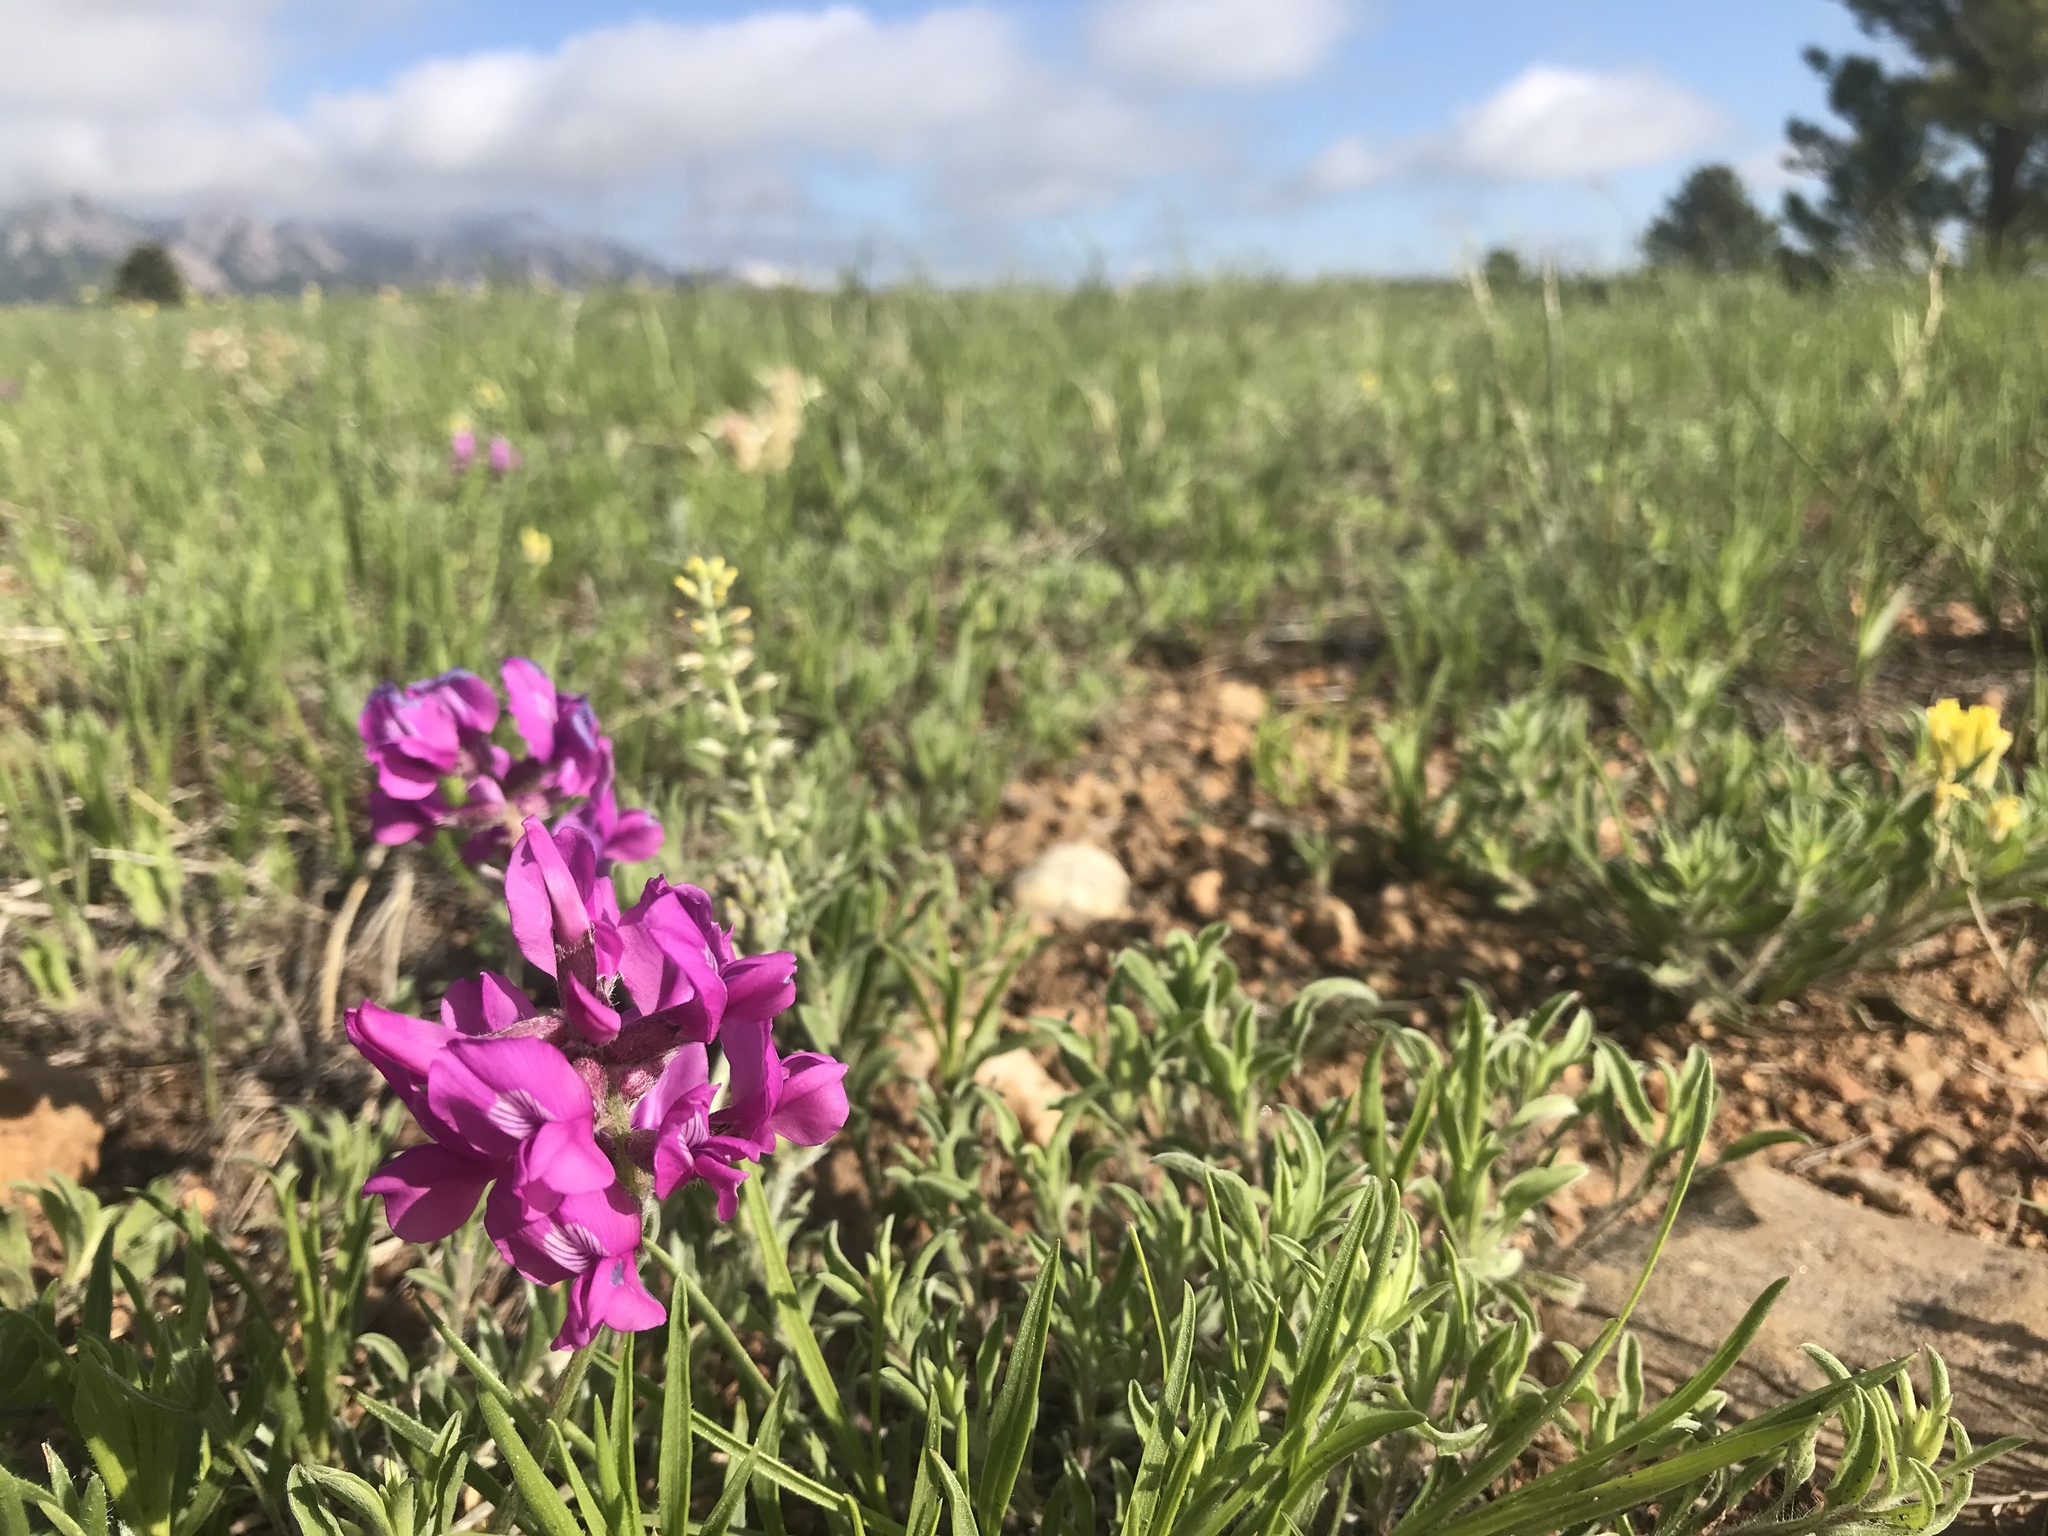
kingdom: Plantae
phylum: Tracheophyta
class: Magnoliopsida
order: Fabales
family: Fabaceae
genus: Oxytropis
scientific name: Oxytropis lambertii
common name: Purple locoweed
